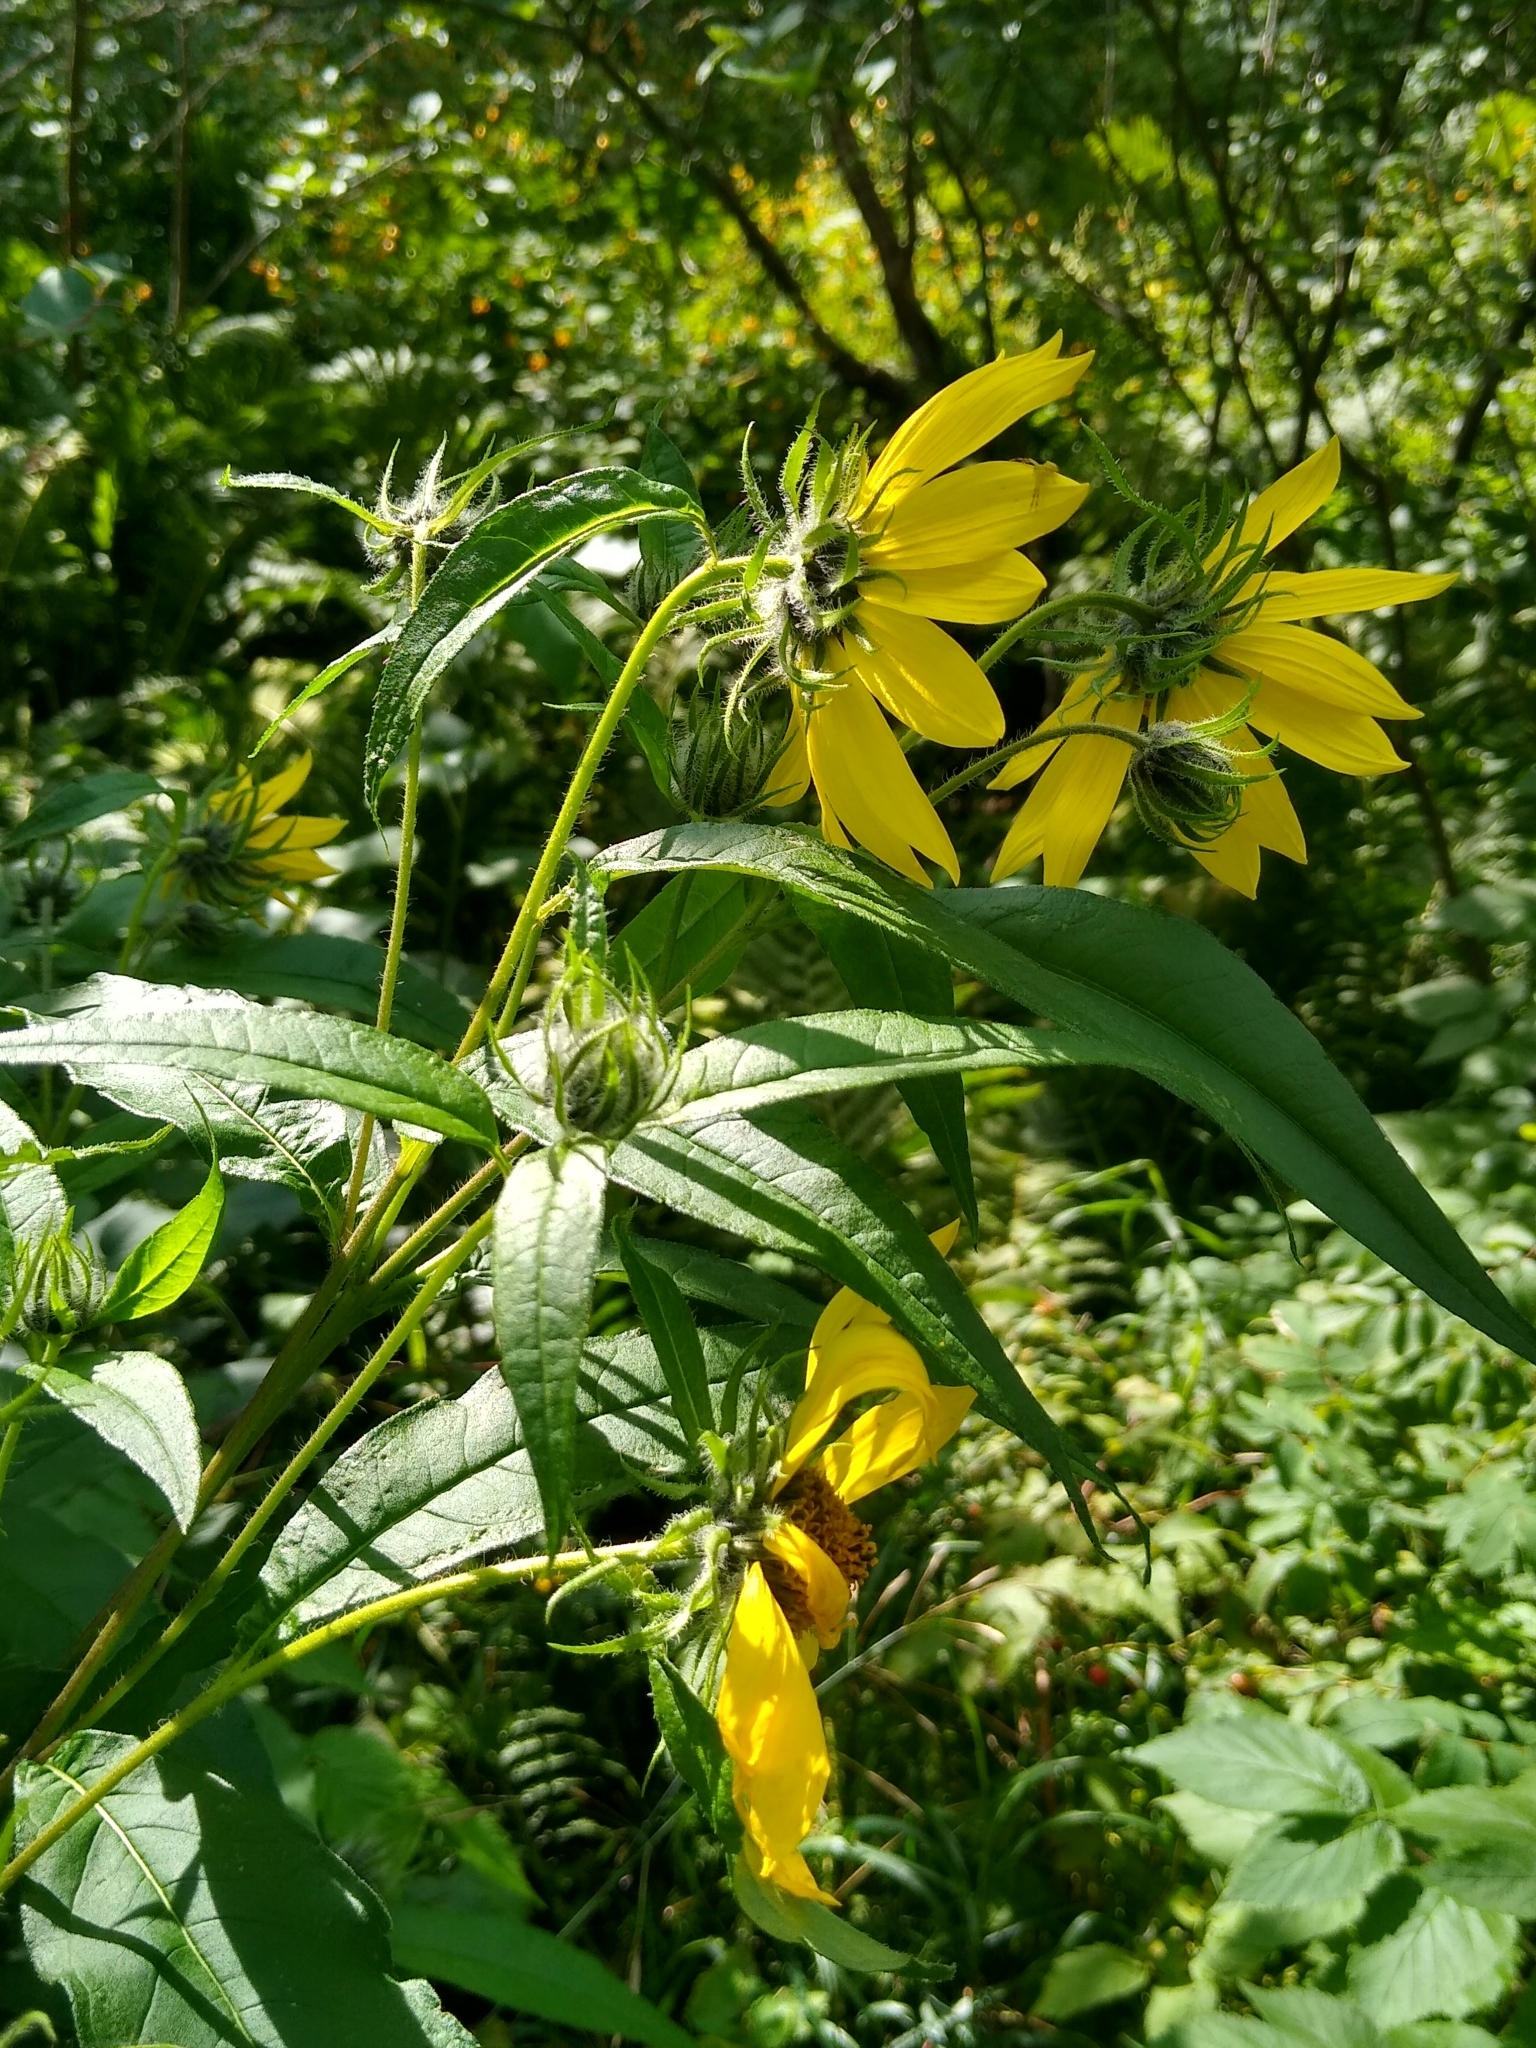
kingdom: Plantae
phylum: Tracheophyta
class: Magnoliopsida
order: Asterales
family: Asteraceae
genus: Helianthus
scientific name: Helianthus giganteus
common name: Giant sunflower
